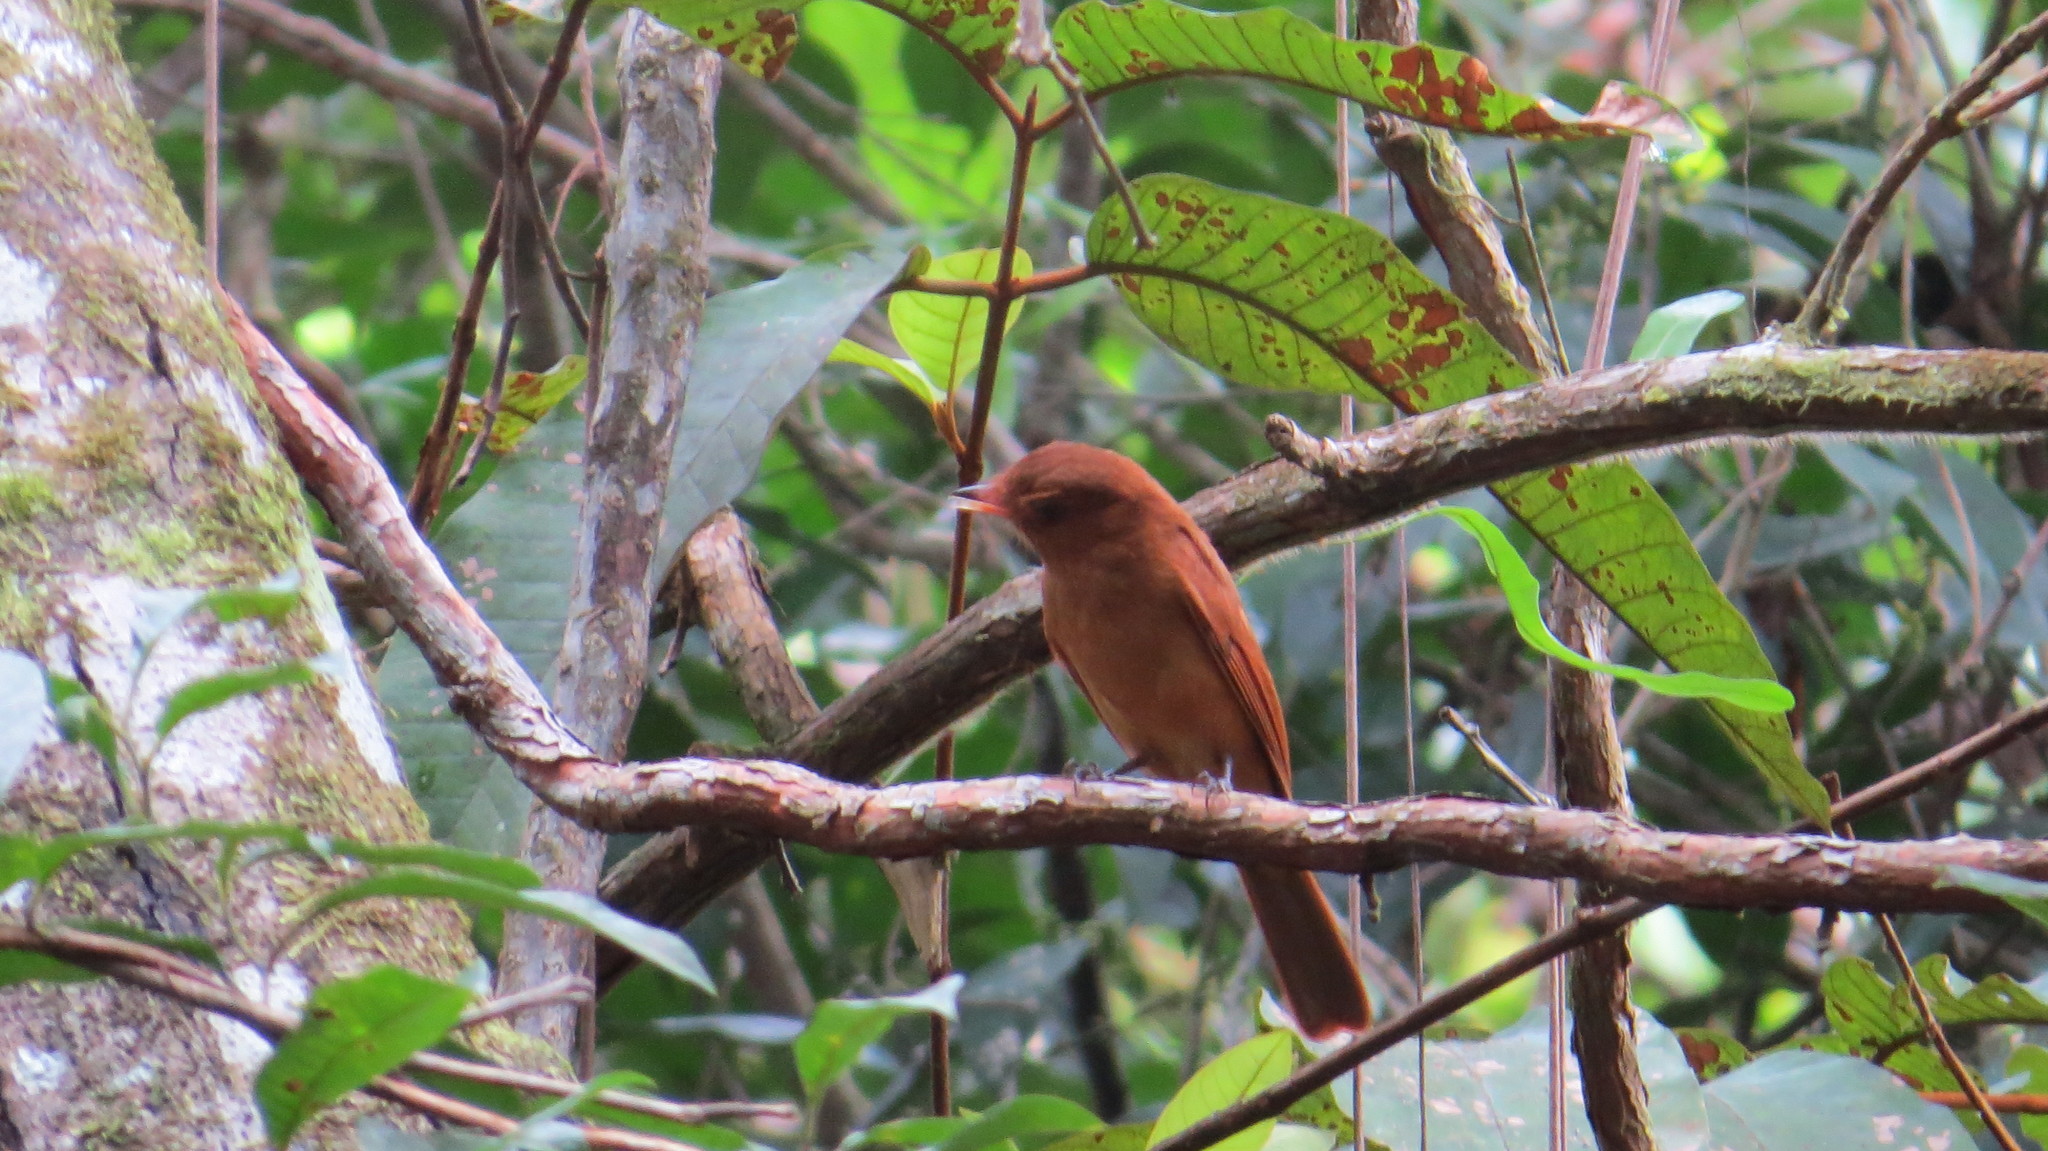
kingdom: Animalia
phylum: Chordata
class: Aves
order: Passeriformes
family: Cotingidae
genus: Lipaugus
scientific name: Lipaugus unirufus
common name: Rufous piha
